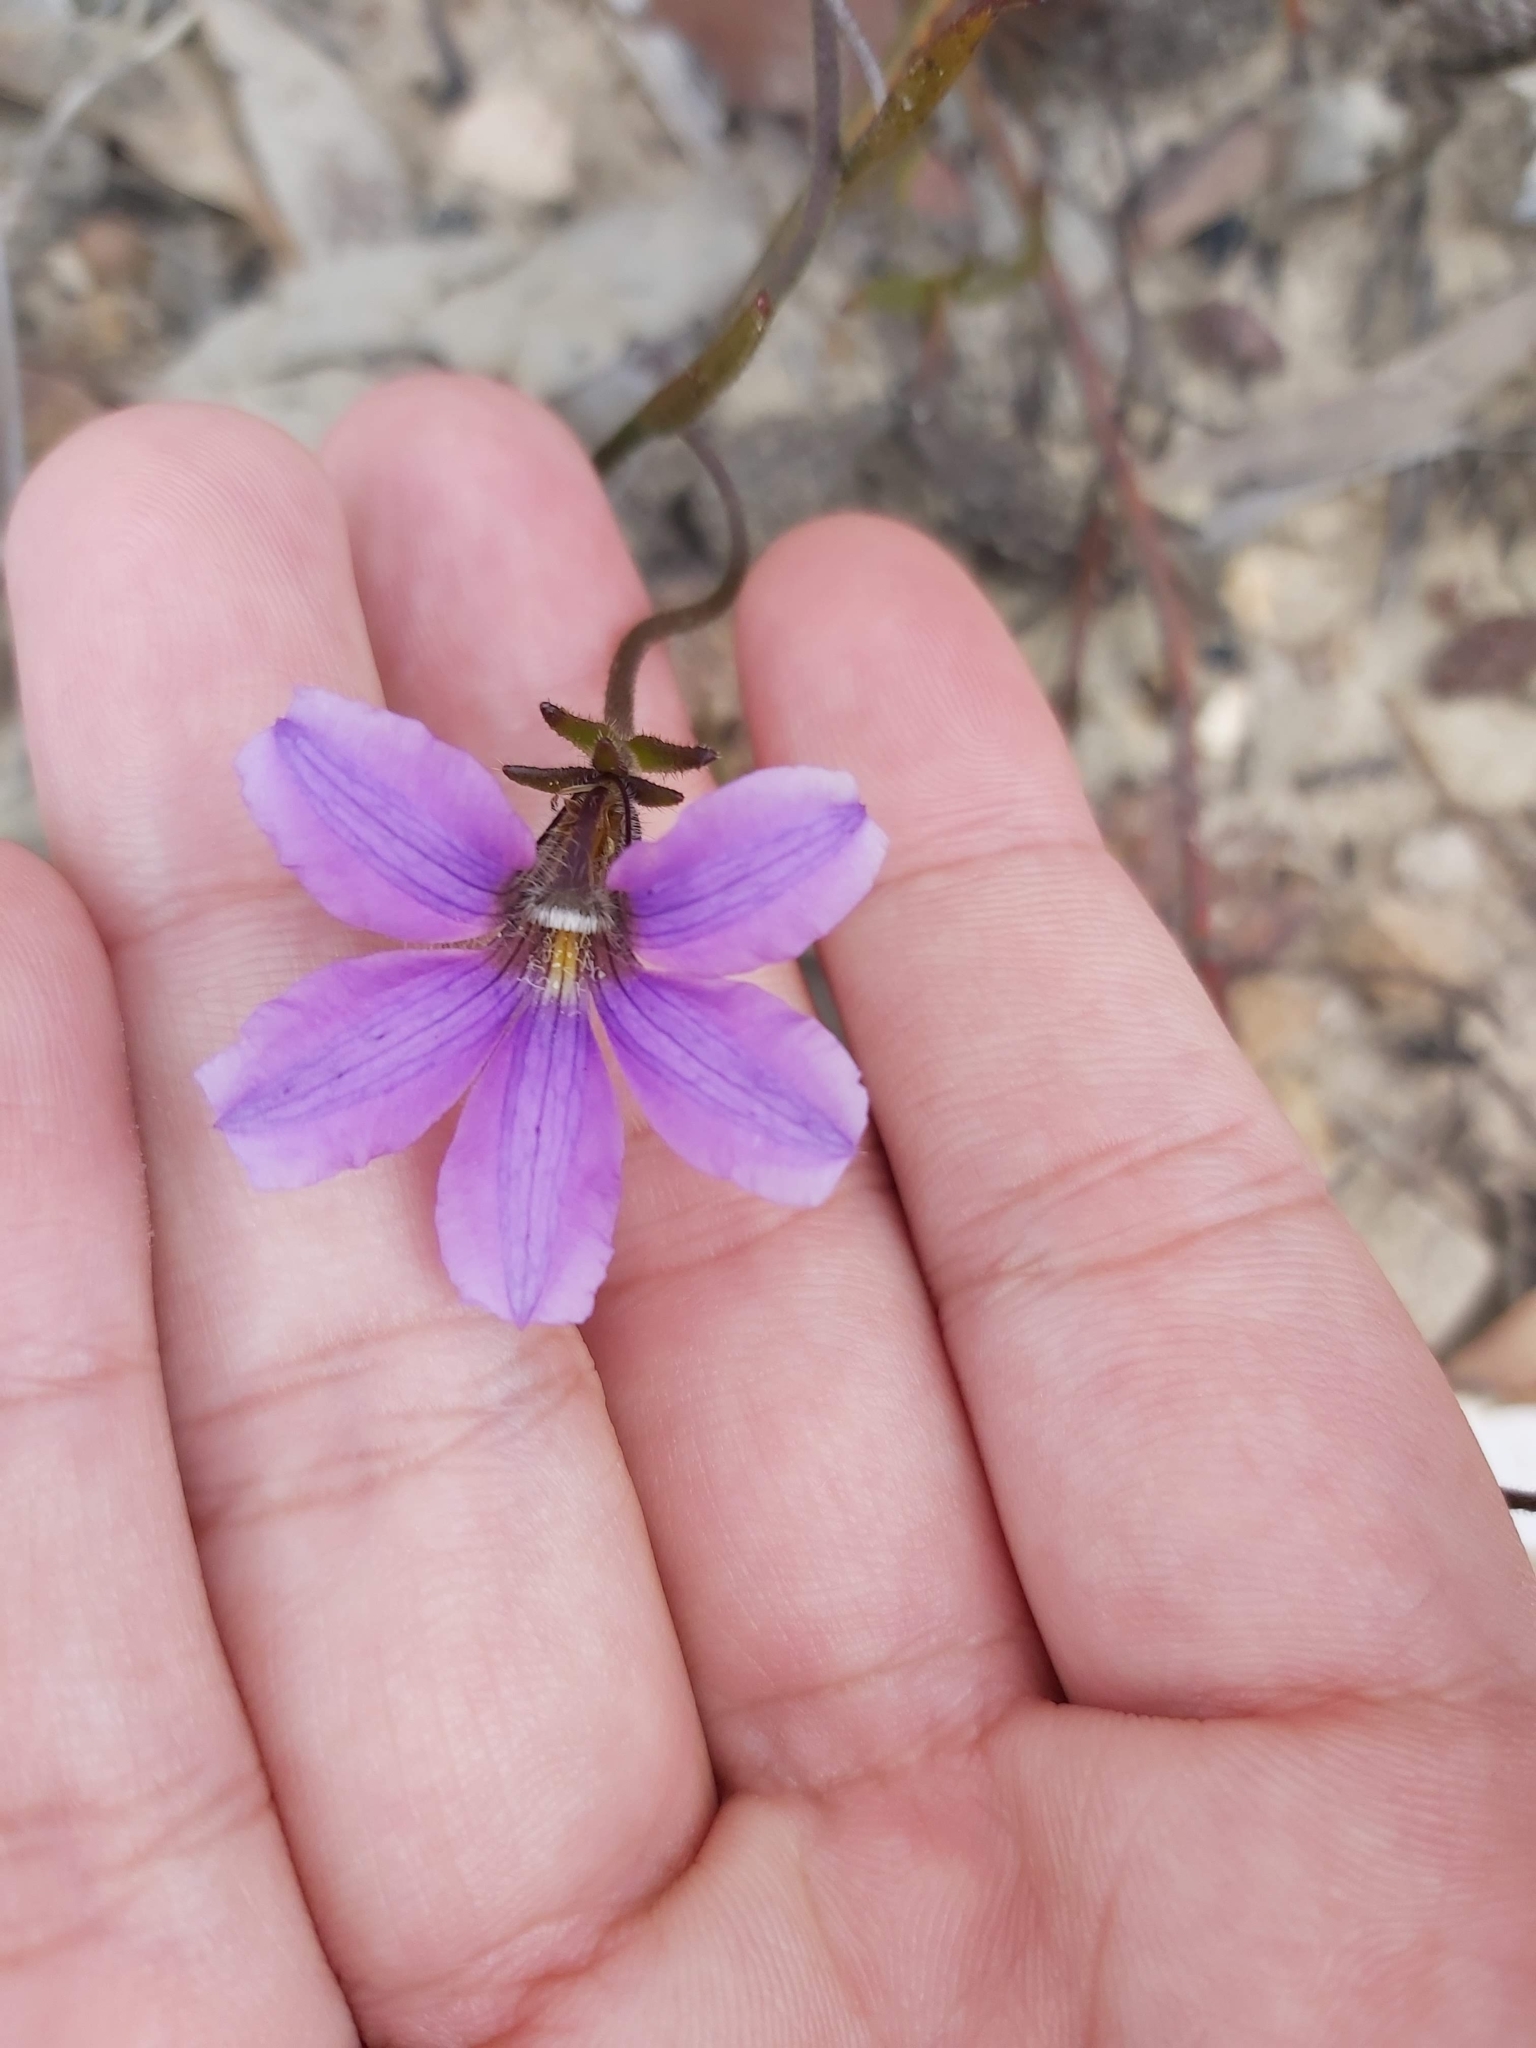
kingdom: Plantae
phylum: Tracheophyta
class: Magnoliopsida
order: Asterales
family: Goodeniaceae
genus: Scaevola
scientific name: Scaevola ramosissima
